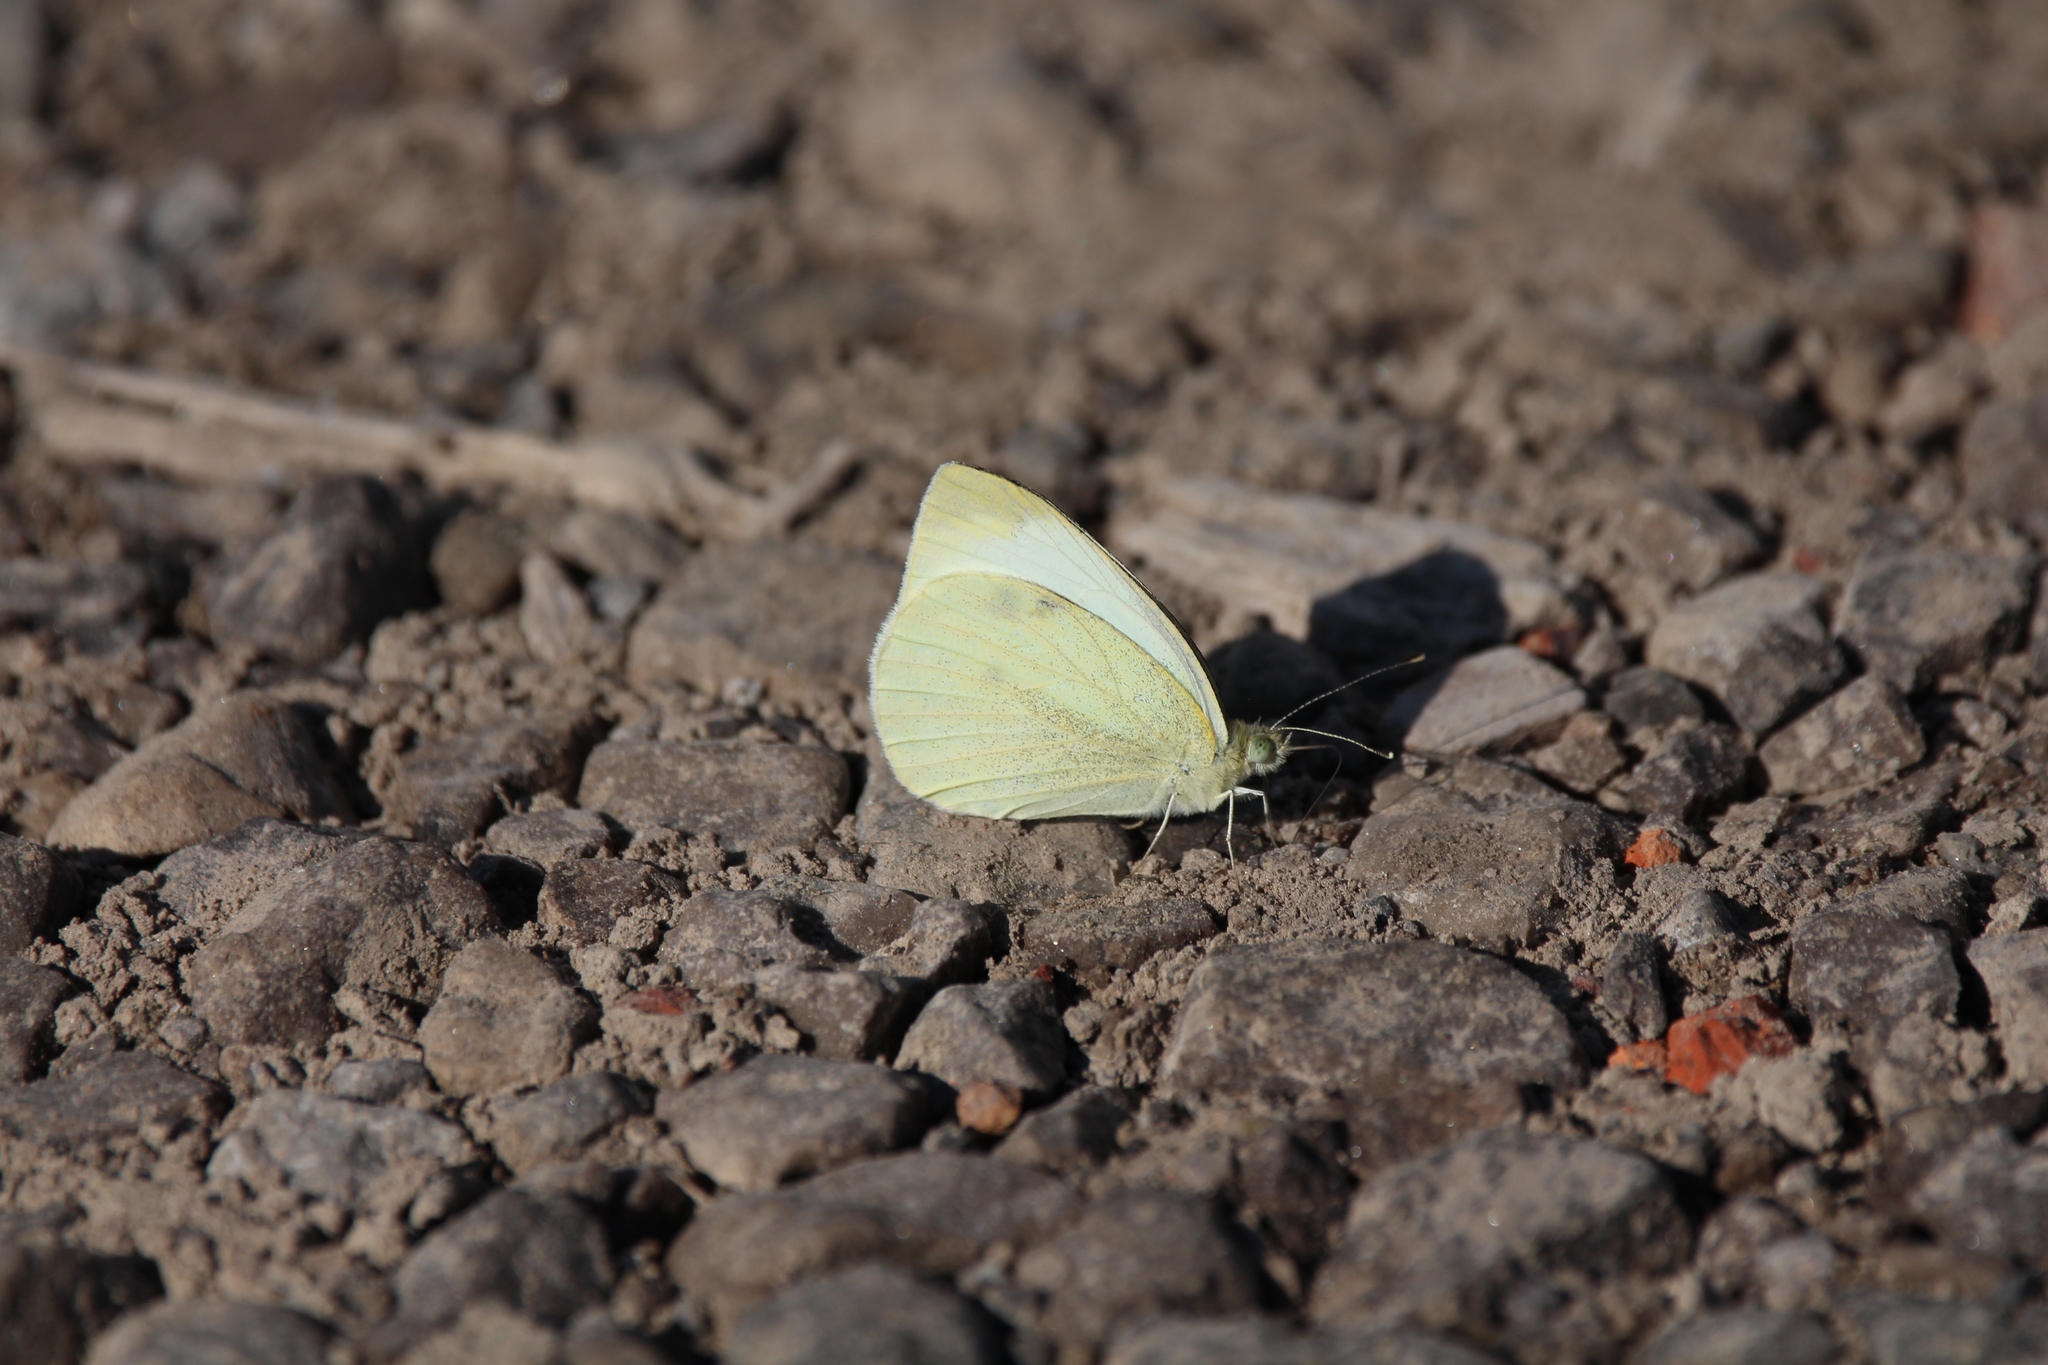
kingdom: Animalia
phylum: Arthropoda
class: Insecta
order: Lepidoptera
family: Pieridae
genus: Pieris
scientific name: Pieris rapae
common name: Small white
